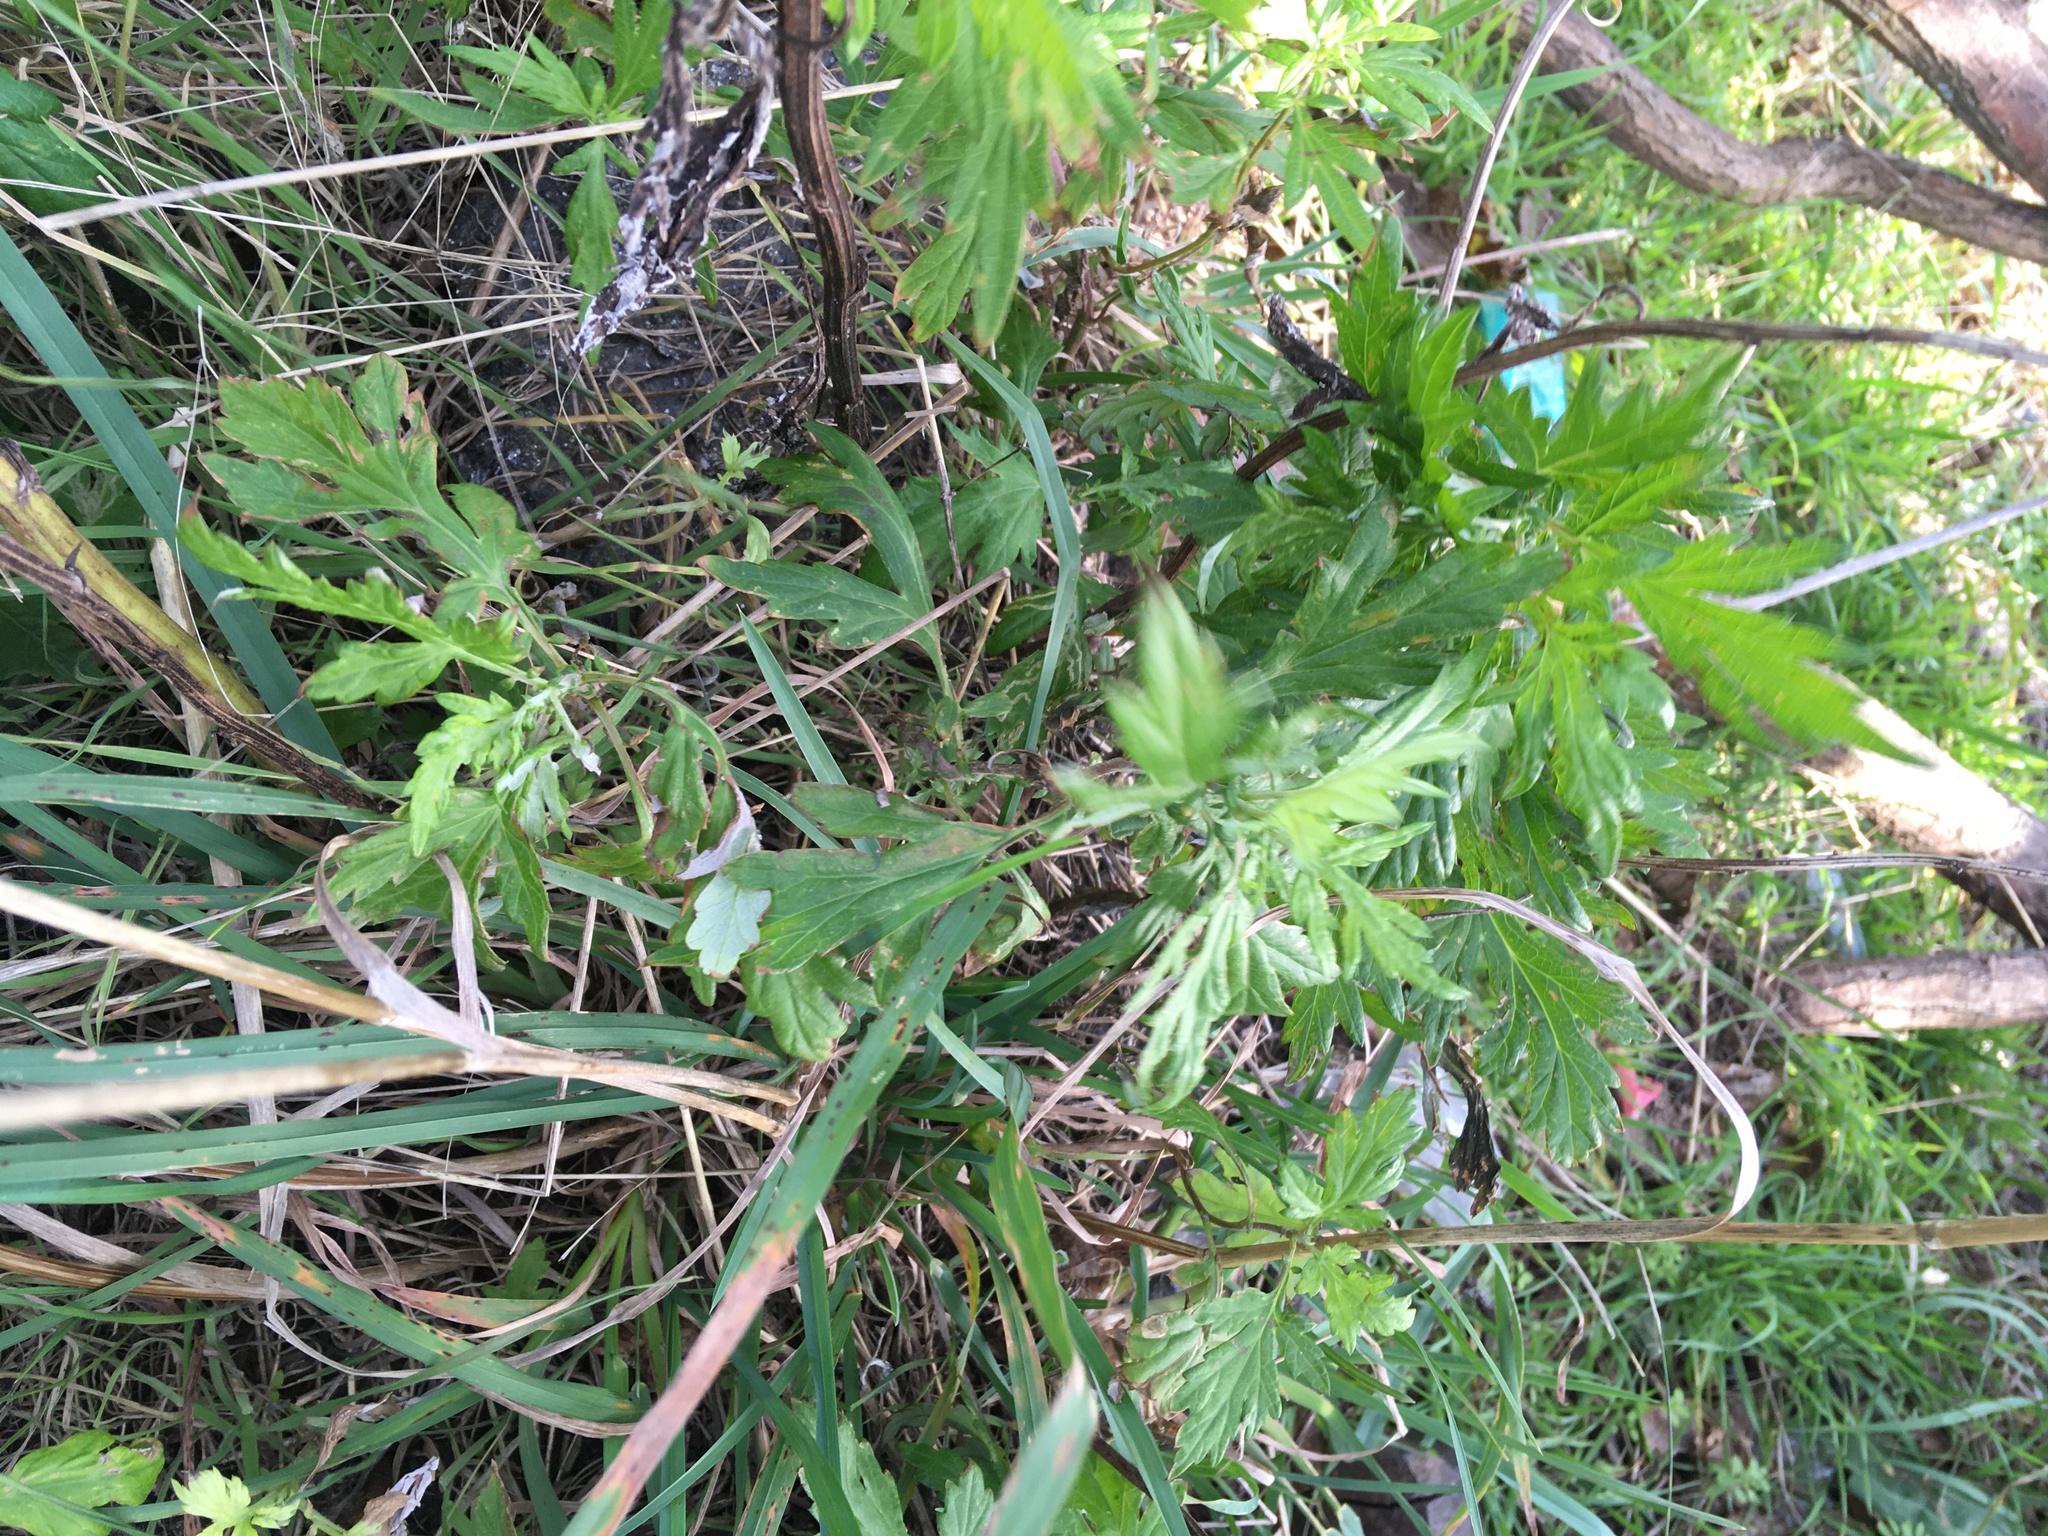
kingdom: Plantae
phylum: Tracheophyta
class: Magnoliopsida
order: Asterales
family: Asteraceae
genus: Artemisia
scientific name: Artemisia vulgaris
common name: Mugwort
